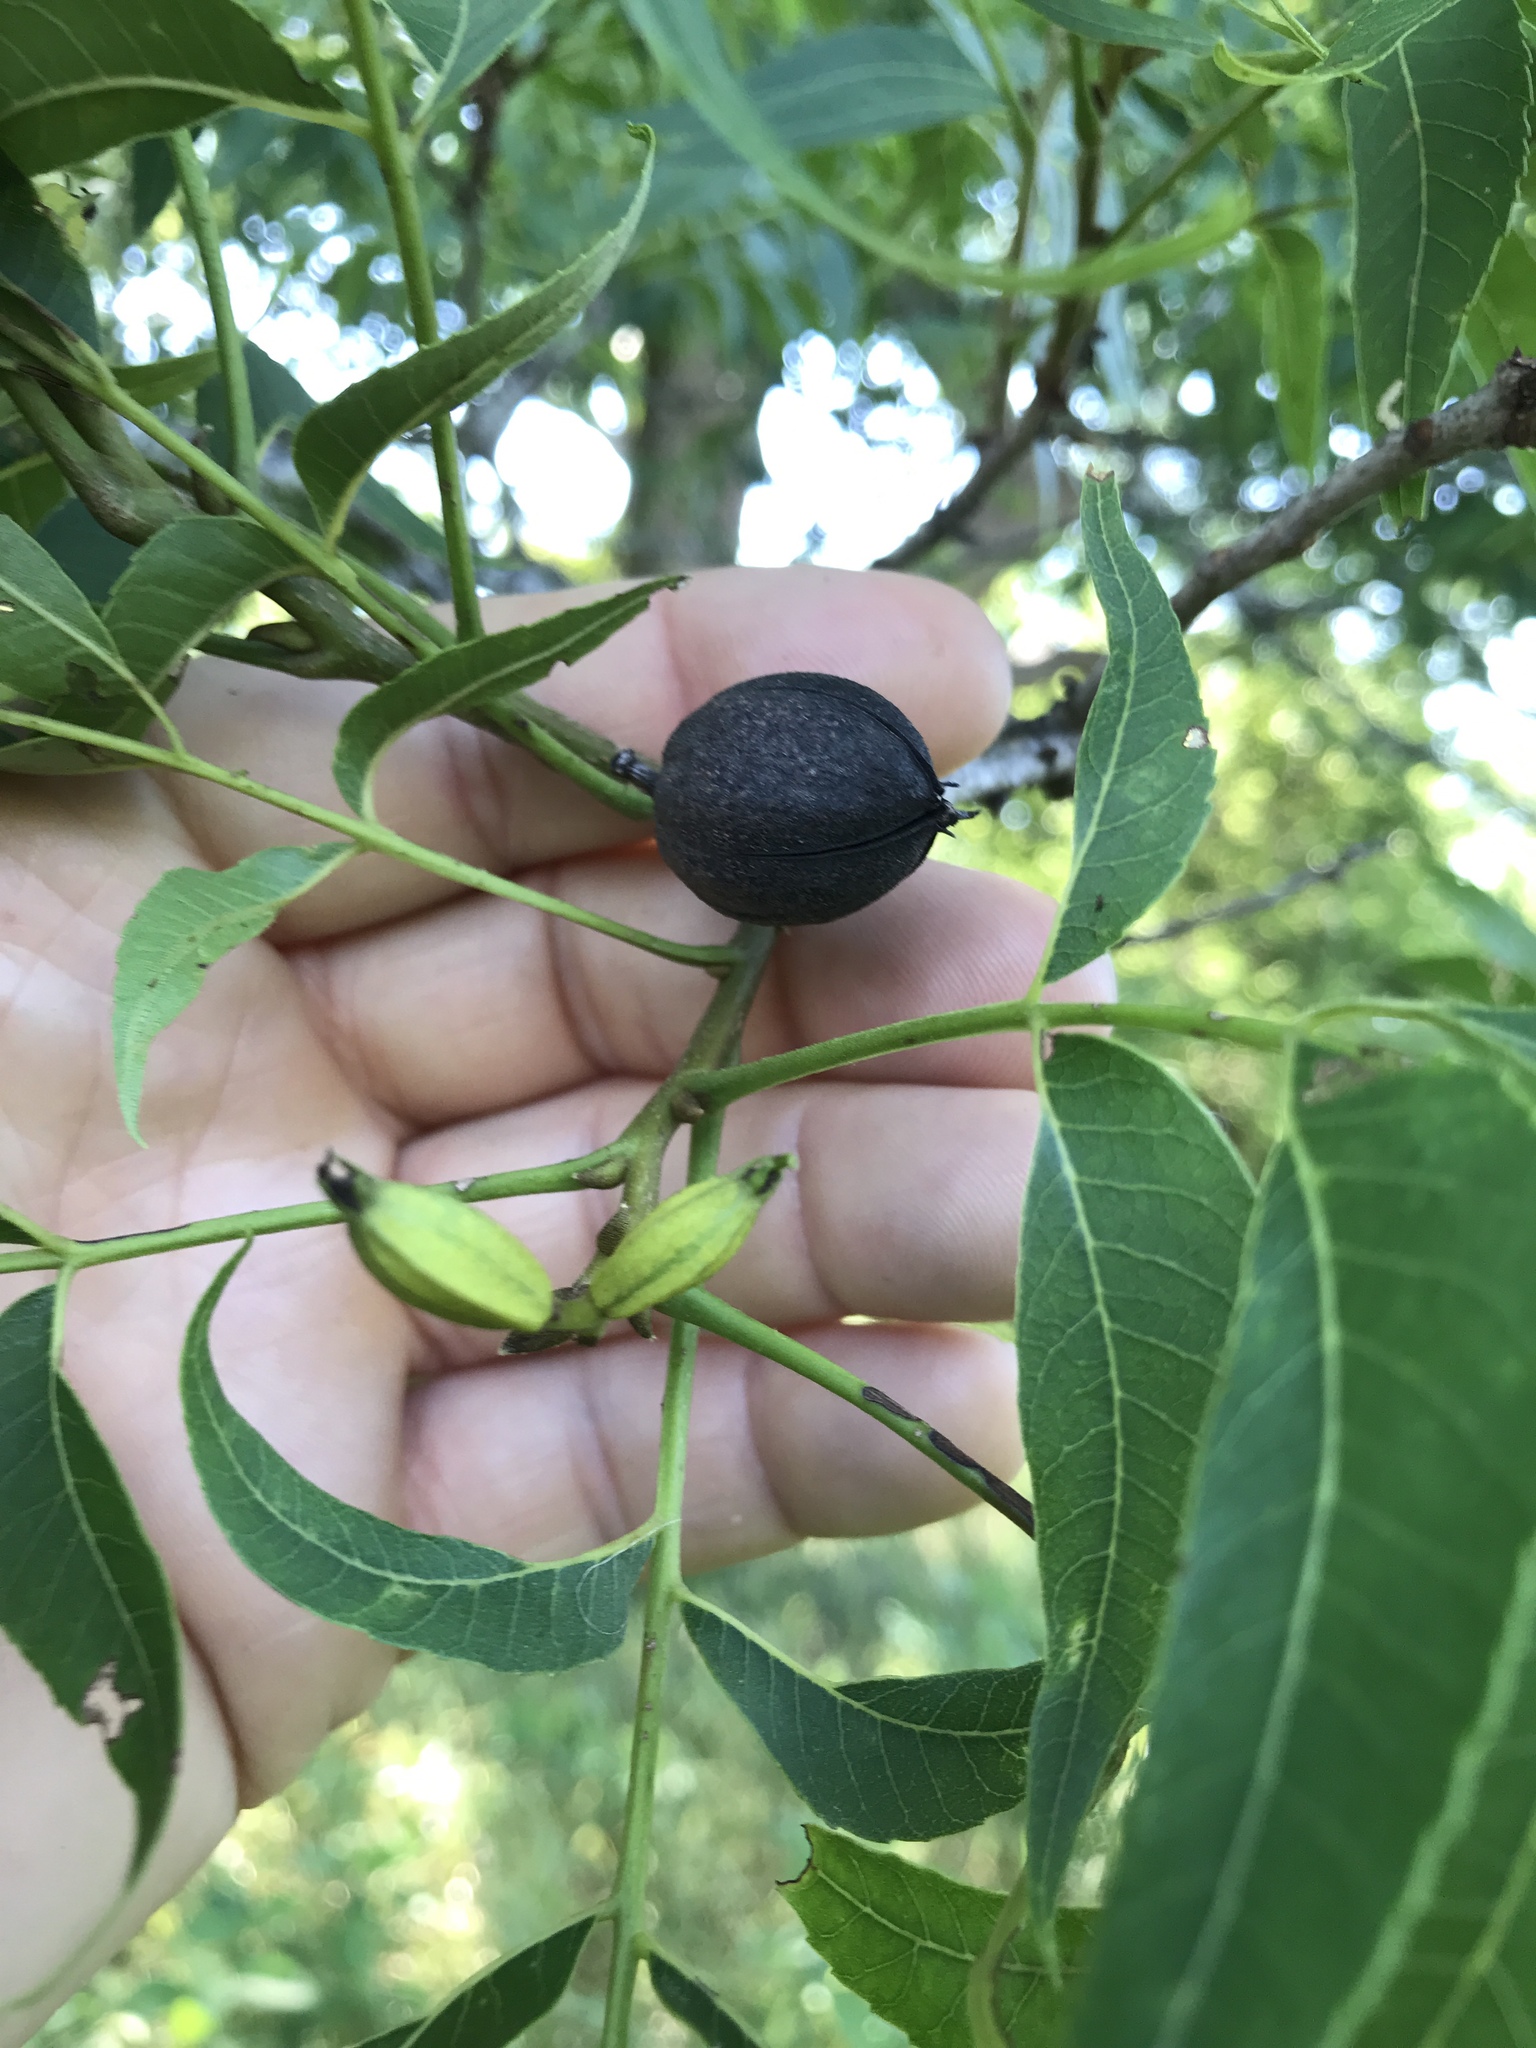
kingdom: Plantae
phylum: Tracheophyta
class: Magnoliopsida
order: Fagales
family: Juglandaceae
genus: Carya
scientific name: Carya illinoinensis
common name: Pecan
